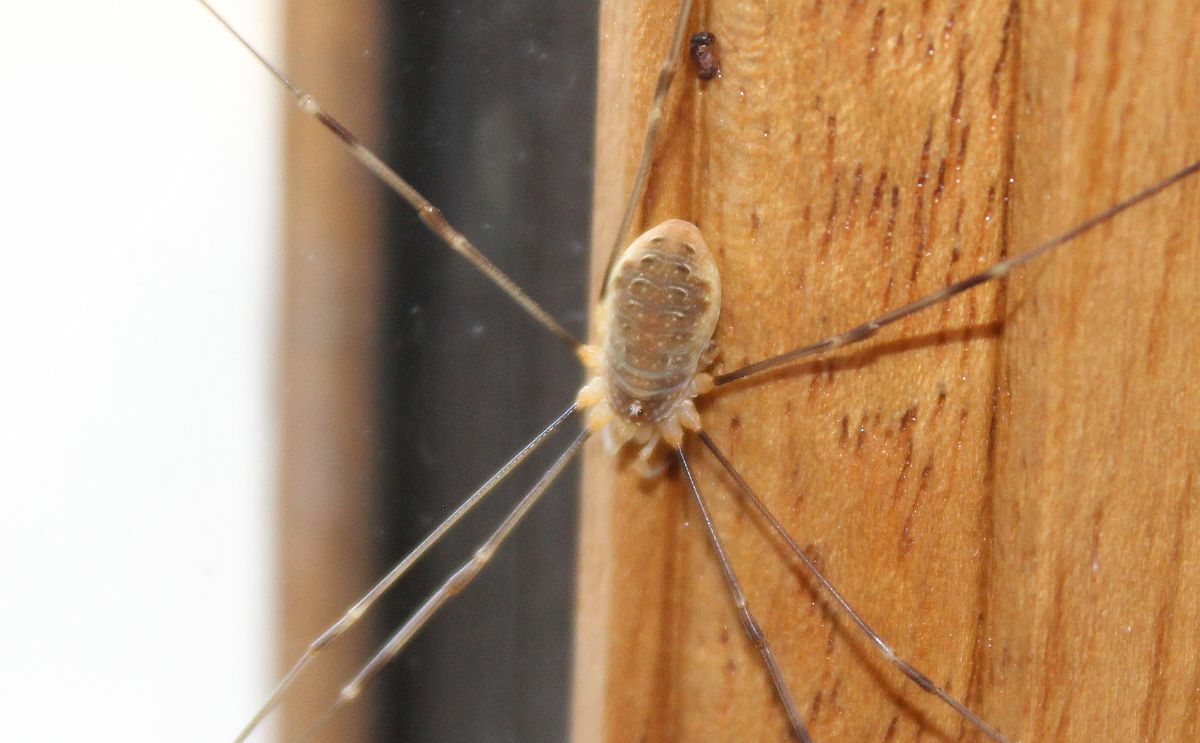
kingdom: Animalia
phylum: Arthropoda
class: Arachnida
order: Opiliones
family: Phalangiidae
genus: Opilio
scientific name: Opilio canestrinii
